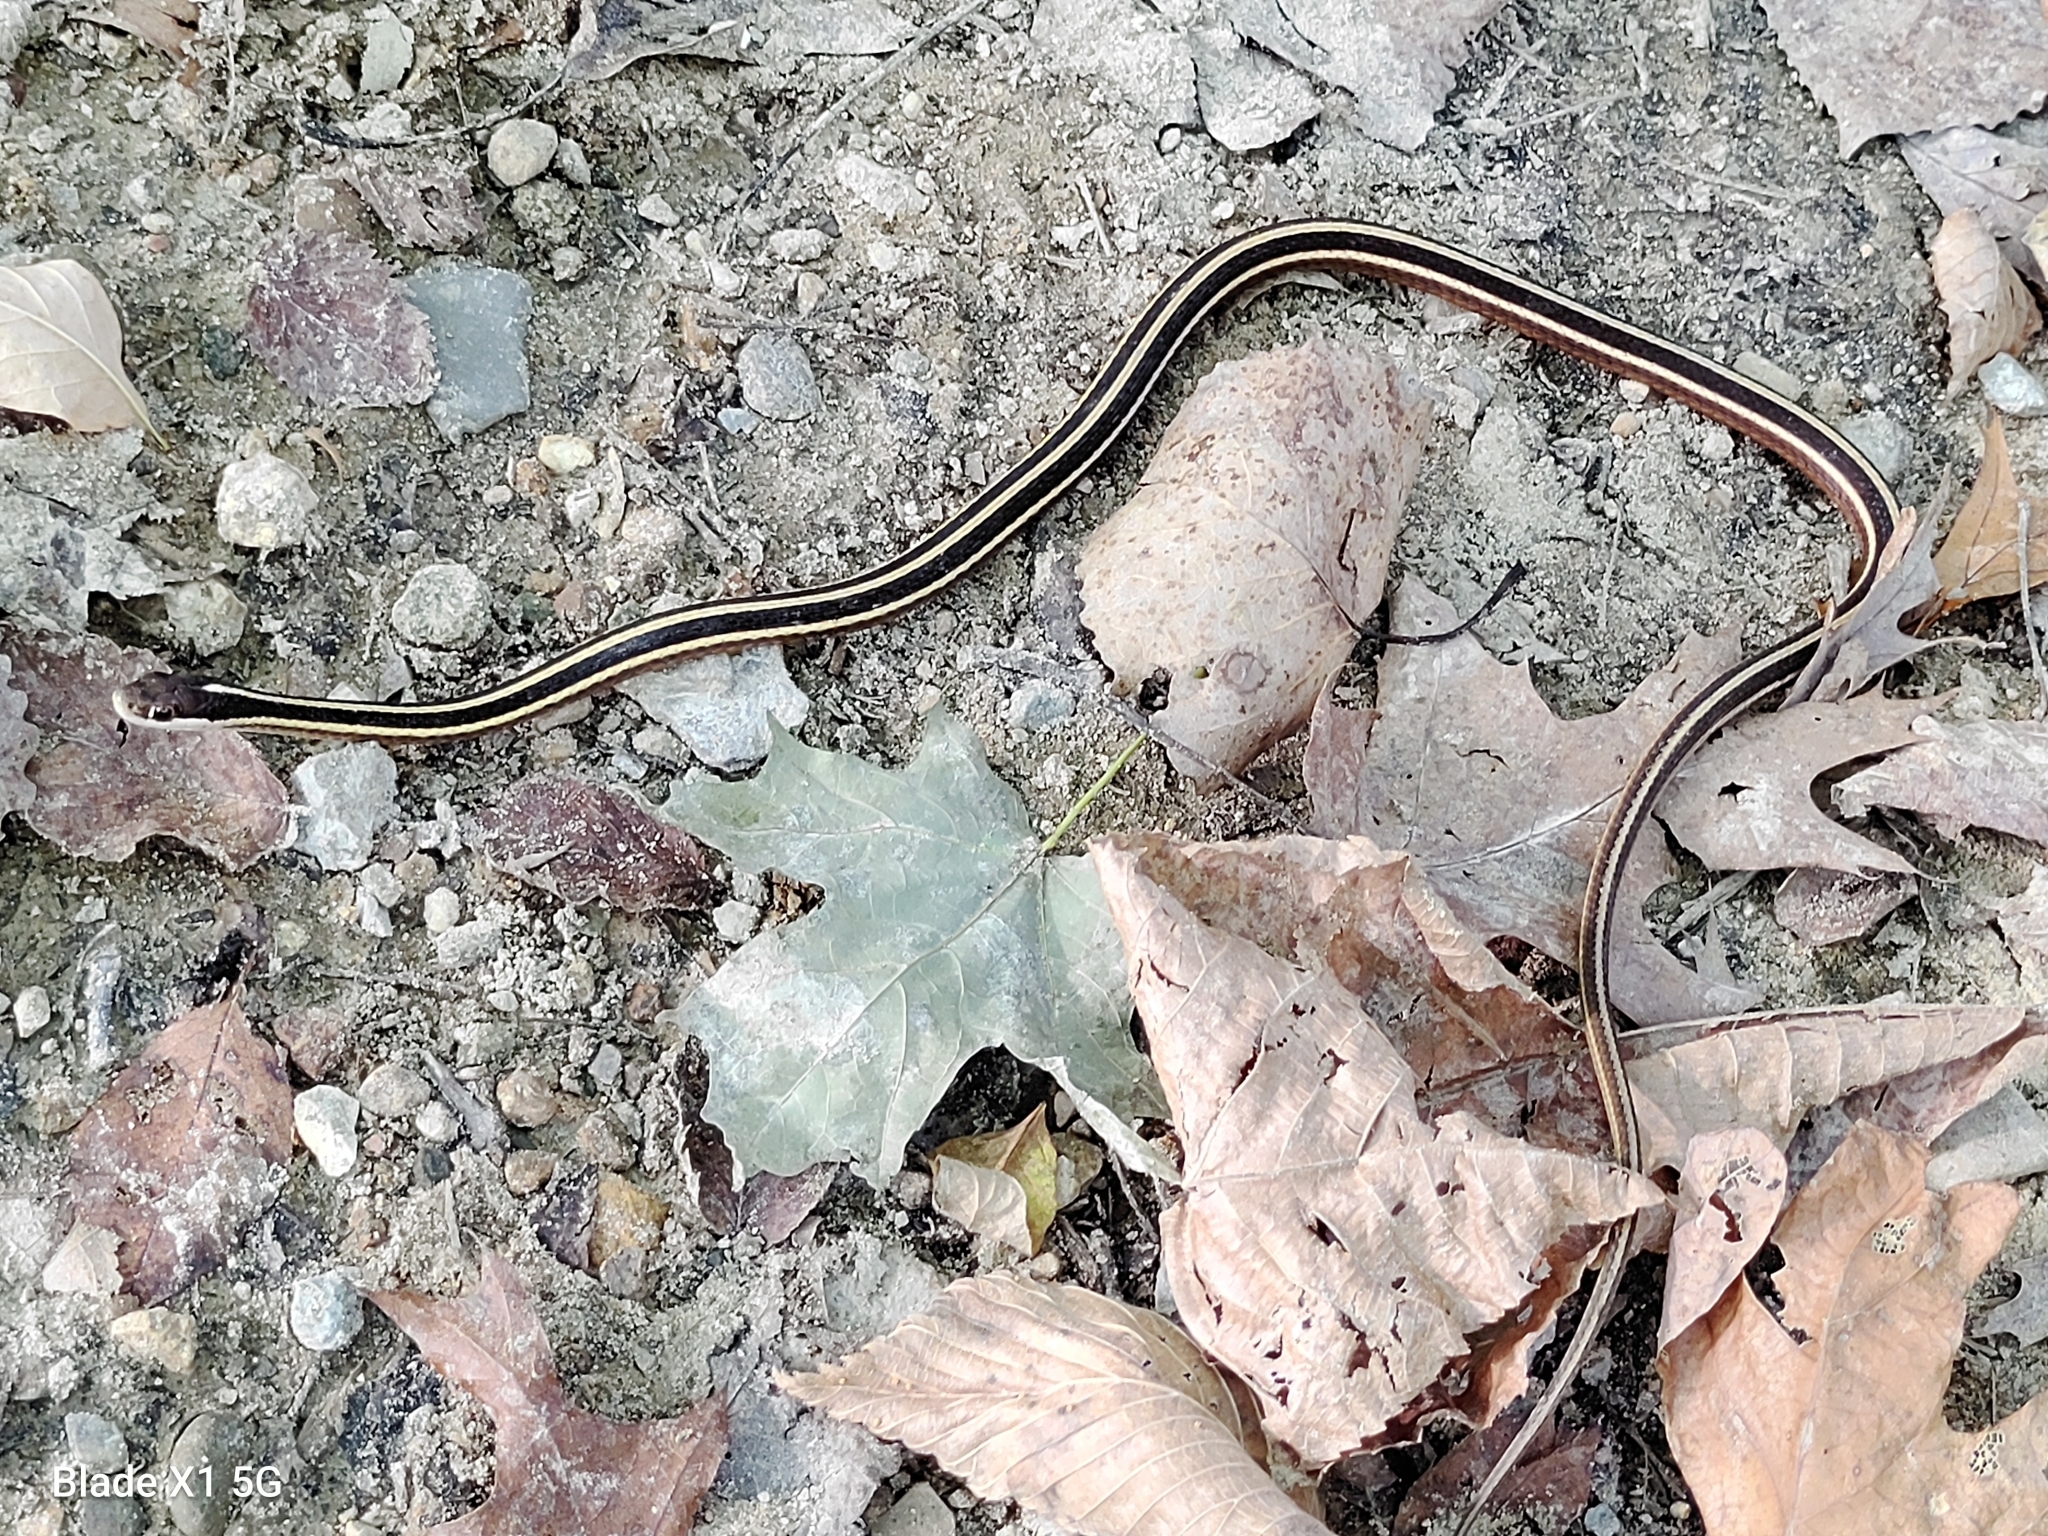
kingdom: Animalia
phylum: Chordata
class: Squamata
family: Colubridae
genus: Thamnophis
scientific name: Thamnophis saurita
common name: Eastern ribbonsnake
